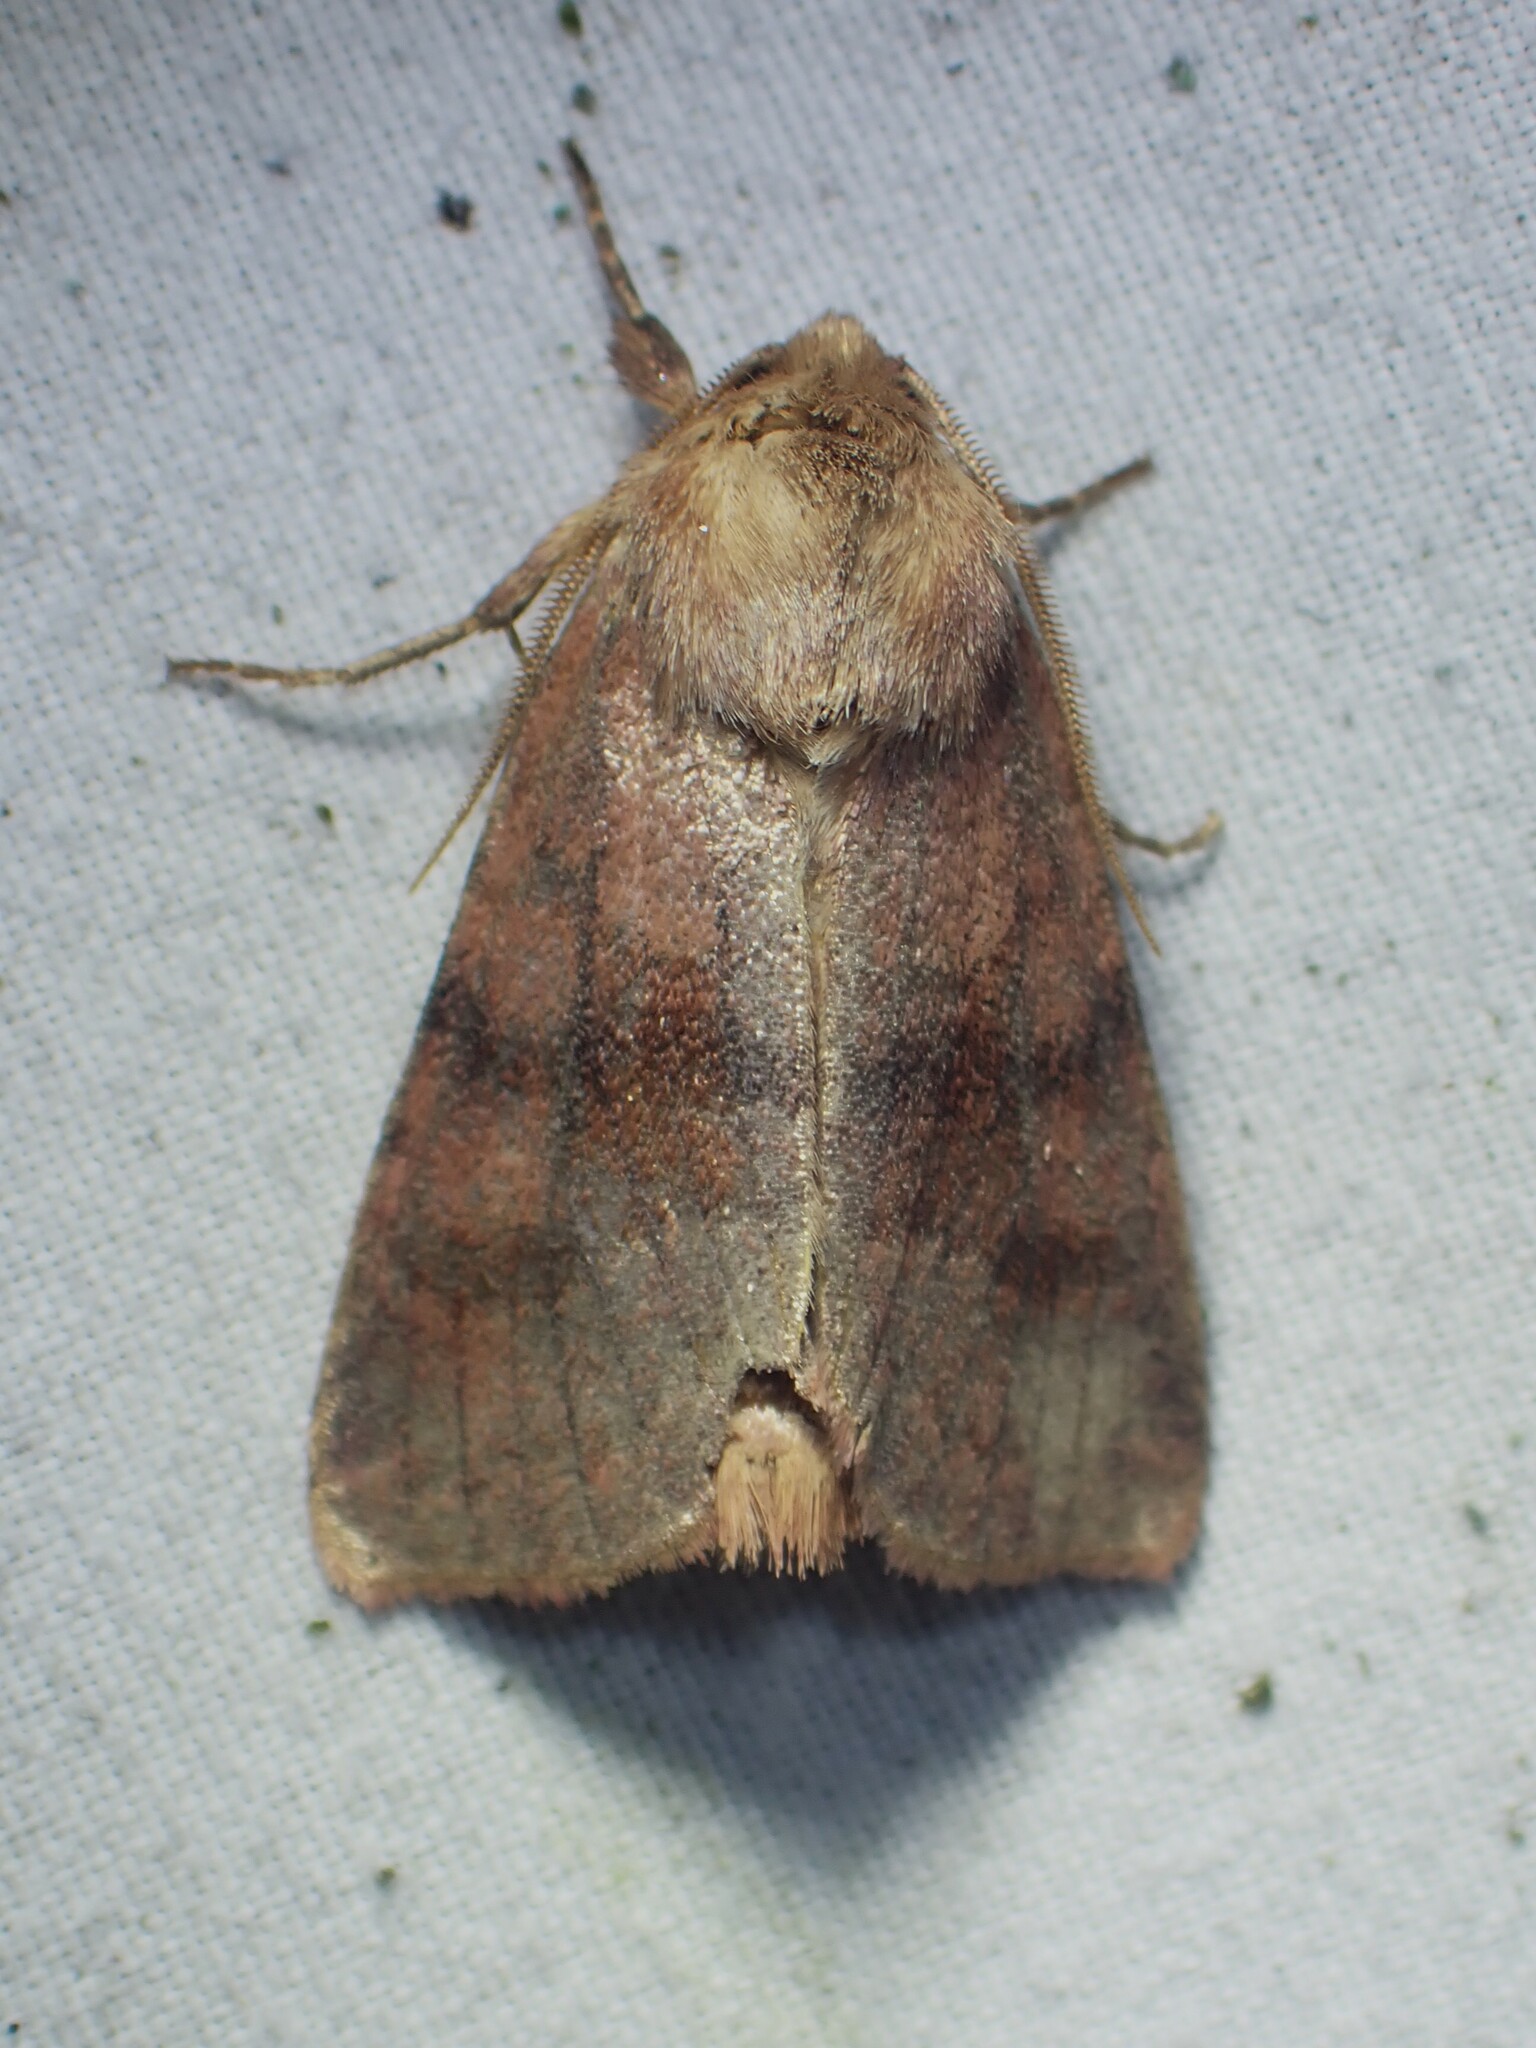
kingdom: Animalia
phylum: Arthropoda
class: Insecta
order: Lepidoptera
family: Noctuidae
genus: Nephelodes
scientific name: Nephelodes minians
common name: Bronzed cutworm
